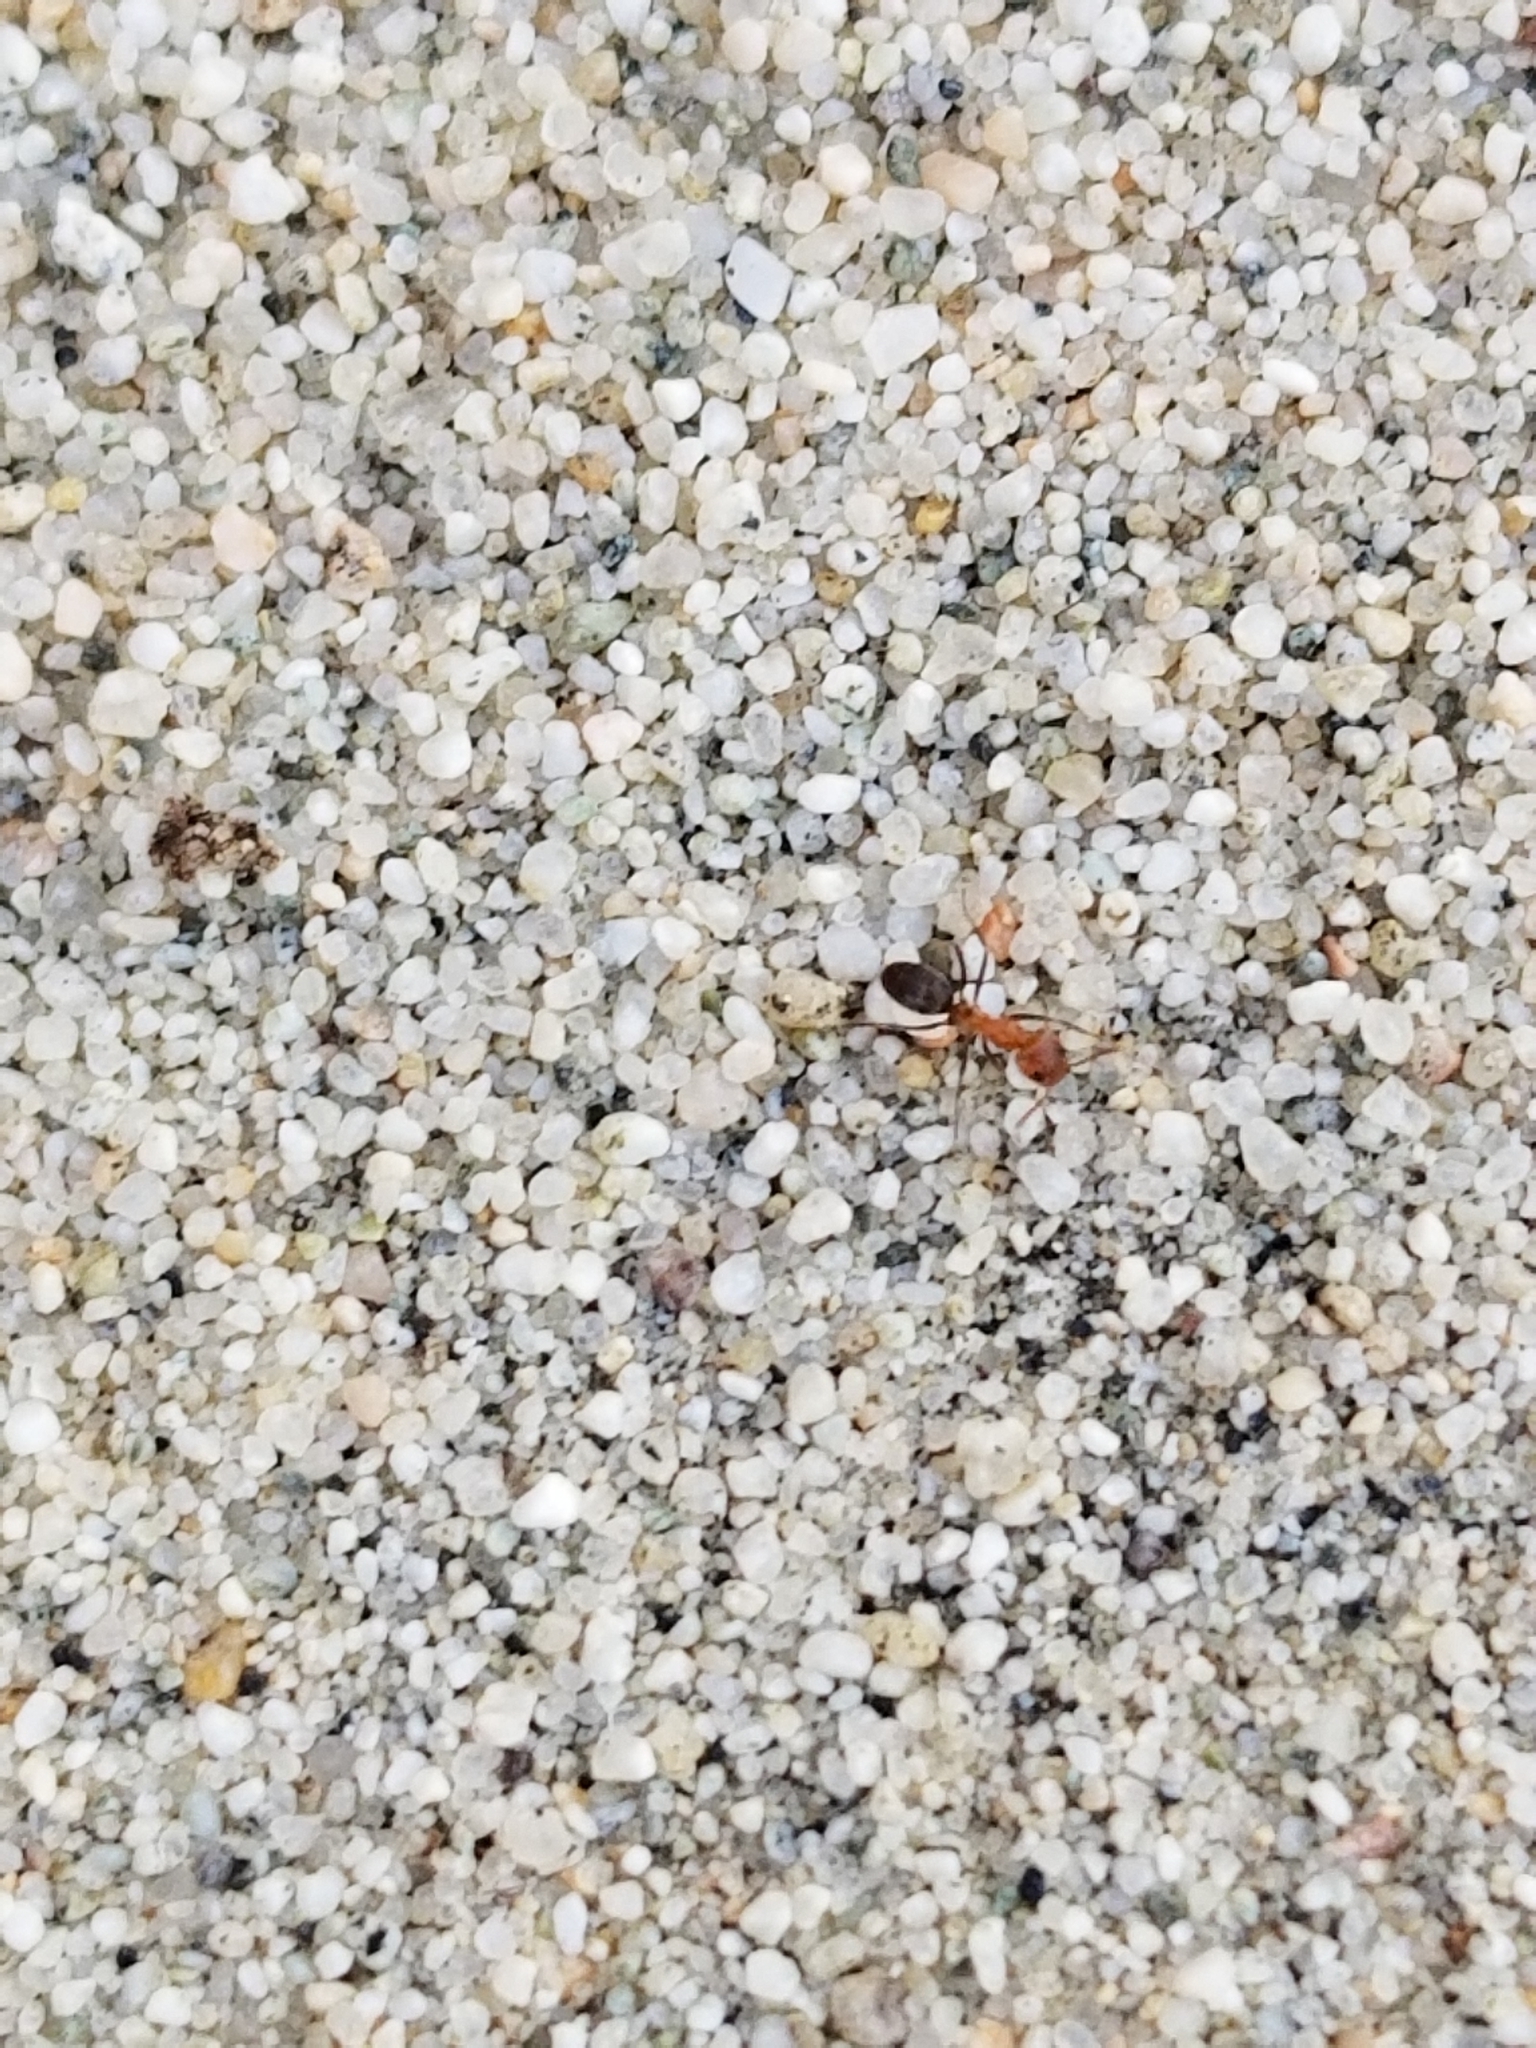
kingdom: Animalia
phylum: Arthropoda
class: Insecta
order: Hymenoptera
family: Formicidae
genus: Dorymyrmex
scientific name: Dorymyrmex bicolor
